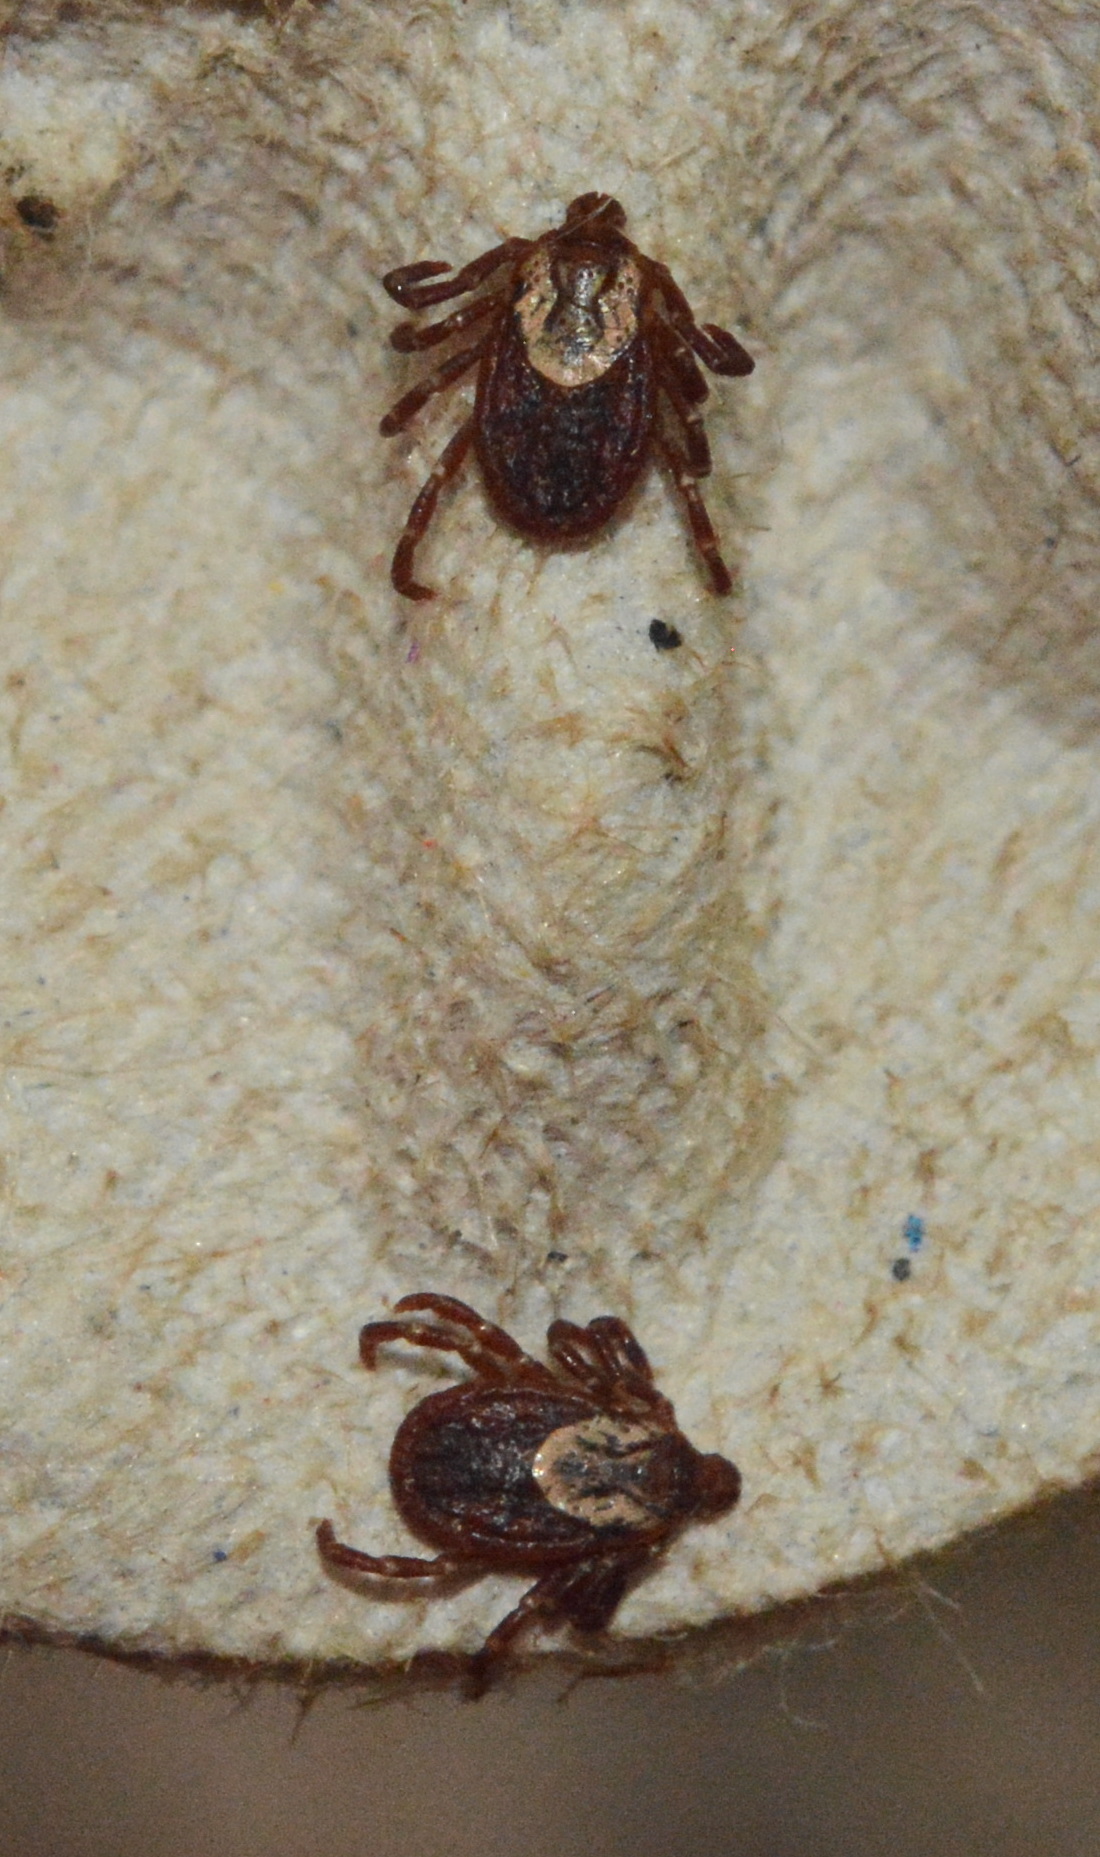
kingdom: Animalia
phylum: Arthropoda
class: Arachnida
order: Ixodida
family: Ixodidae
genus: Dermacentor
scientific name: Dermacentor variabilis
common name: American dog tick
